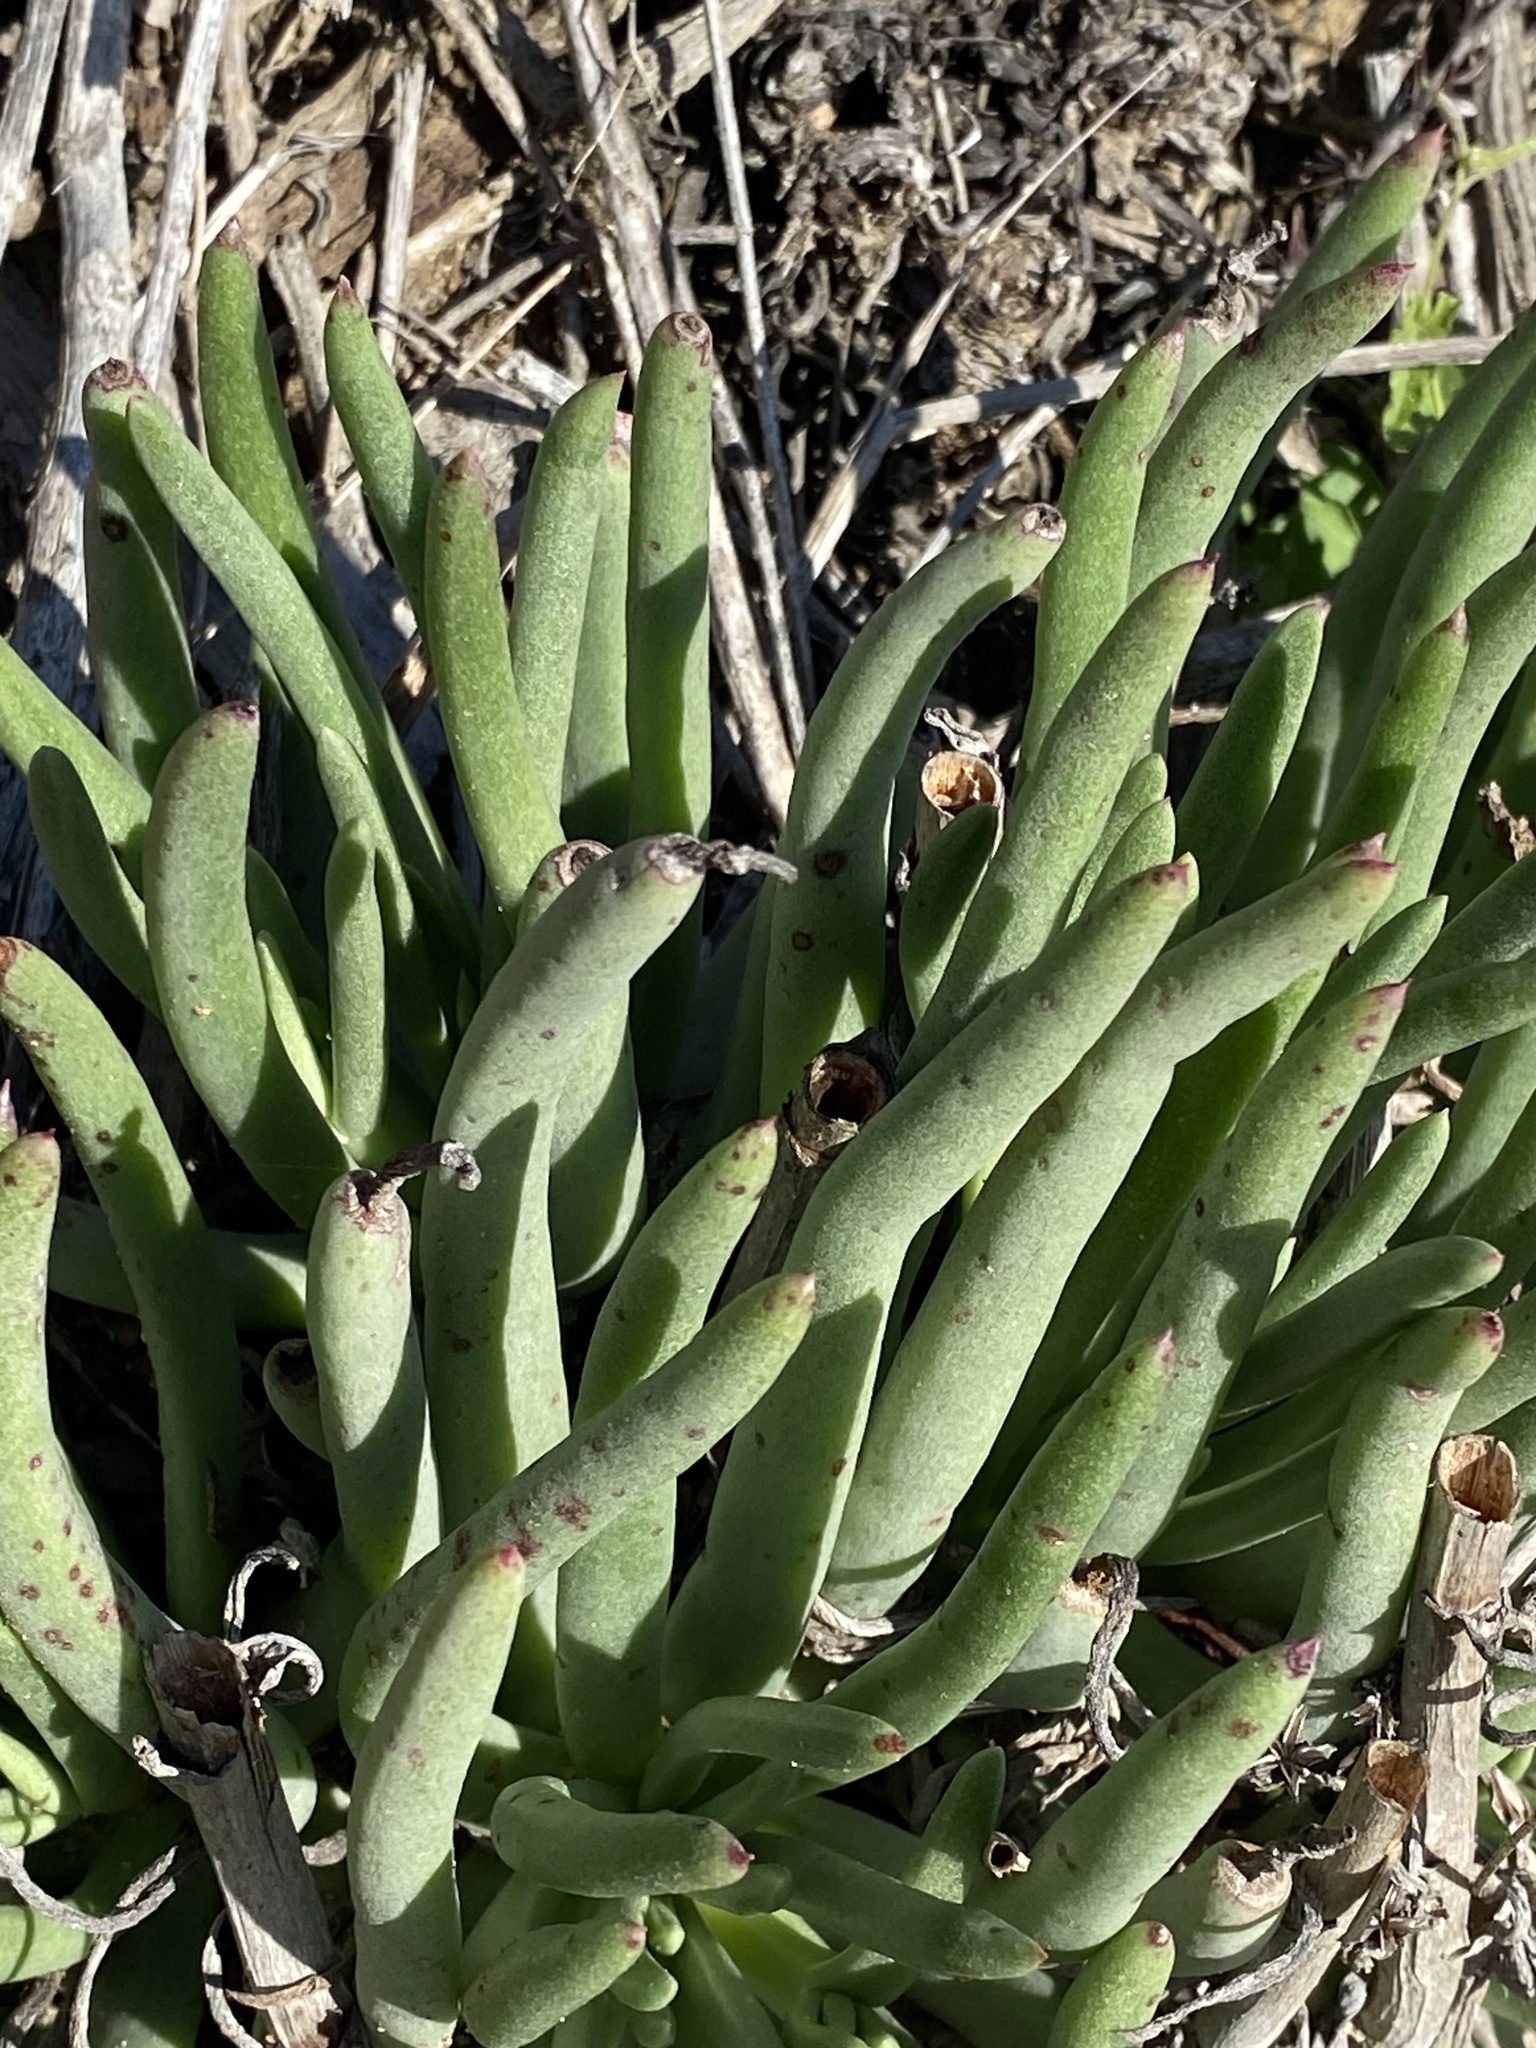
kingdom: Plantae
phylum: Tracheophyta
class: Magnoliopsida
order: Saxifragales
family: Crassulaceae
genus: Dudleya
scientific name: Dudleya edulis
